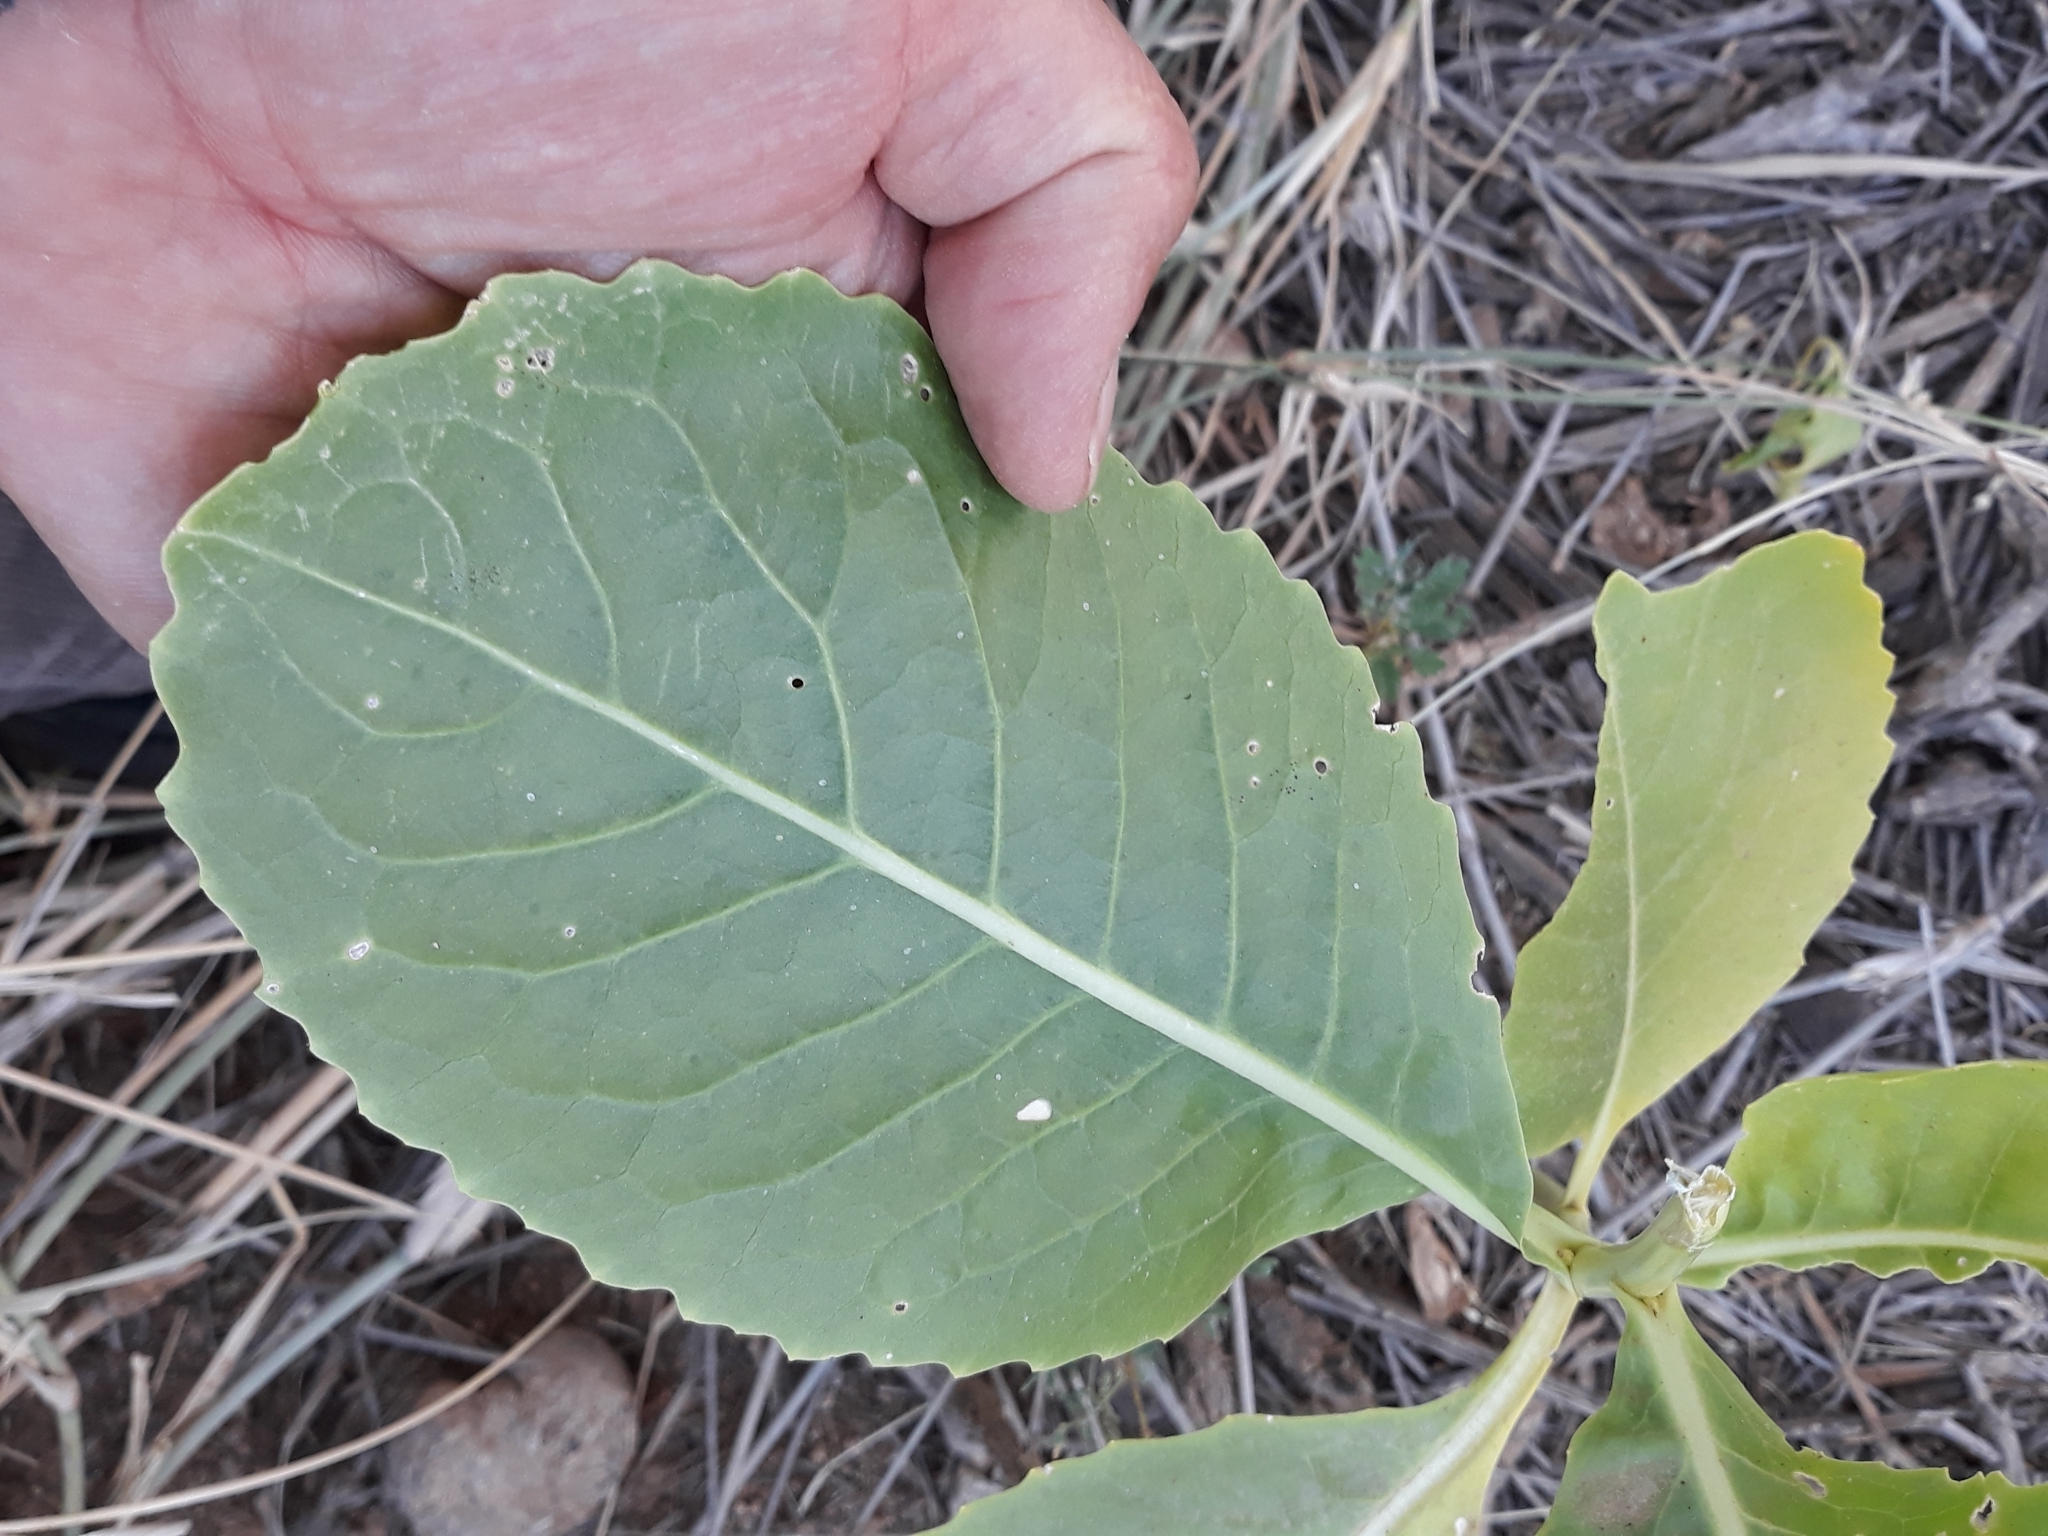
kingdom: Plantae
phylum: Tracheophyta
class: Magnoliopsida
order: Brassicales
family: Brassicaceae
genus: Schouwia
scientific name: Schouwia purpurea
